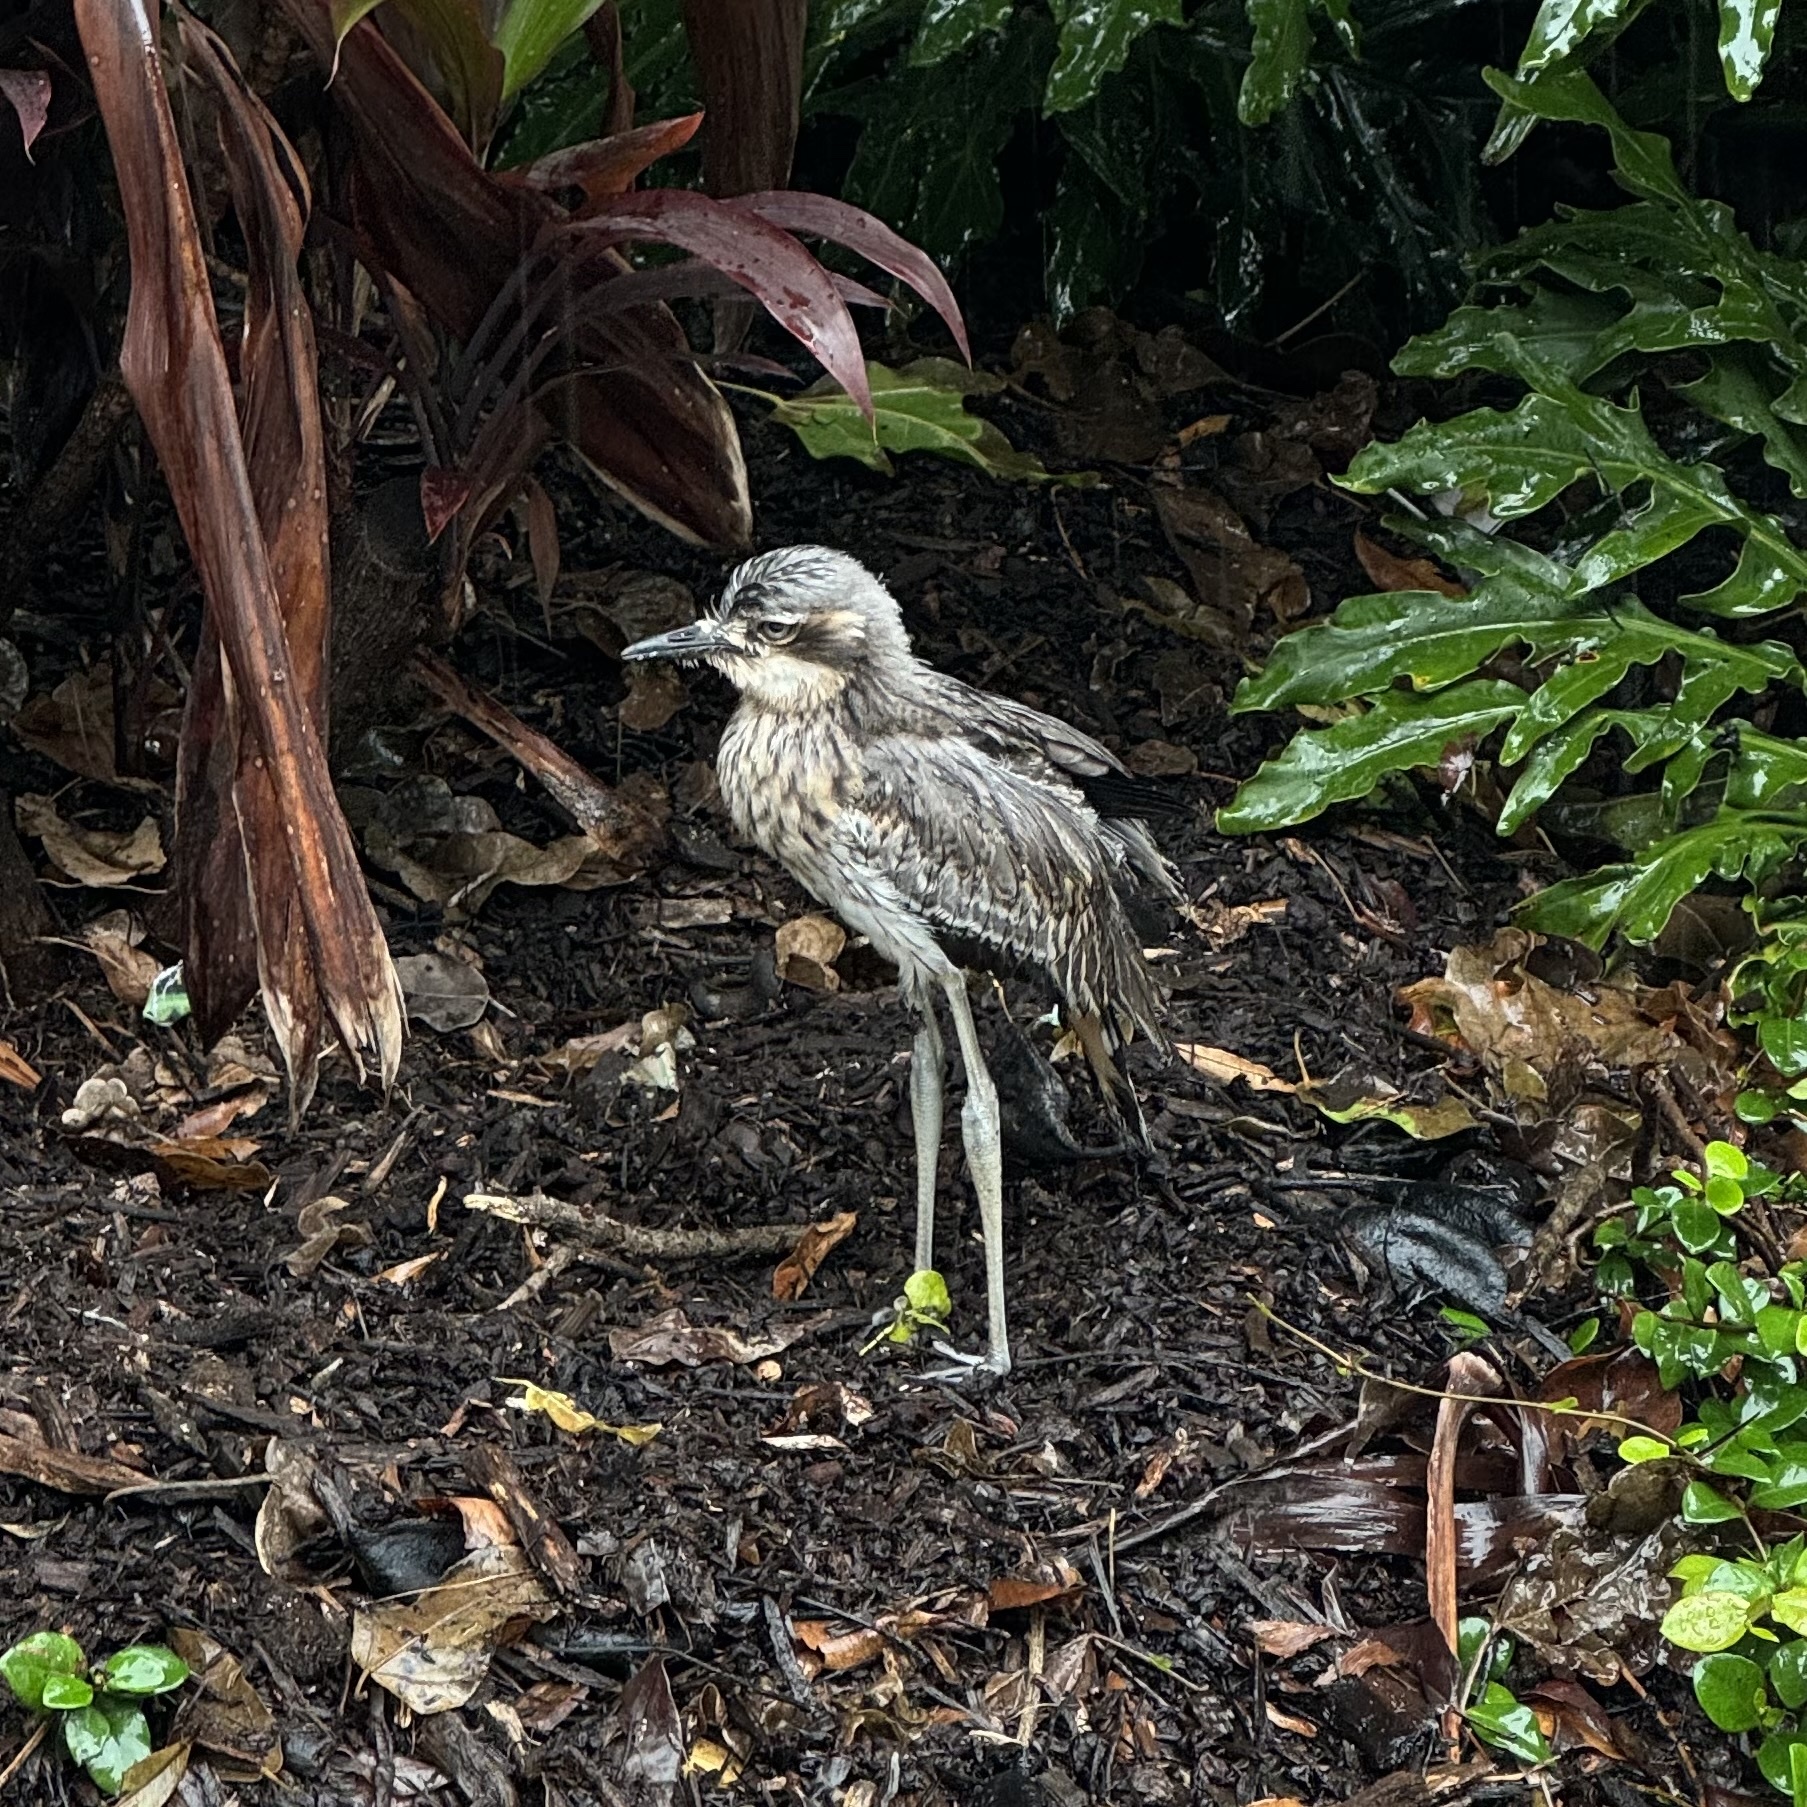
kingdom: Animalia
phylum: Chordata
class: Aves
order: Charadriiformes
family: Burhinidae
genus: Burhinus
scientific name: Burhinus grallarius
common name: Bush stone-curlew
